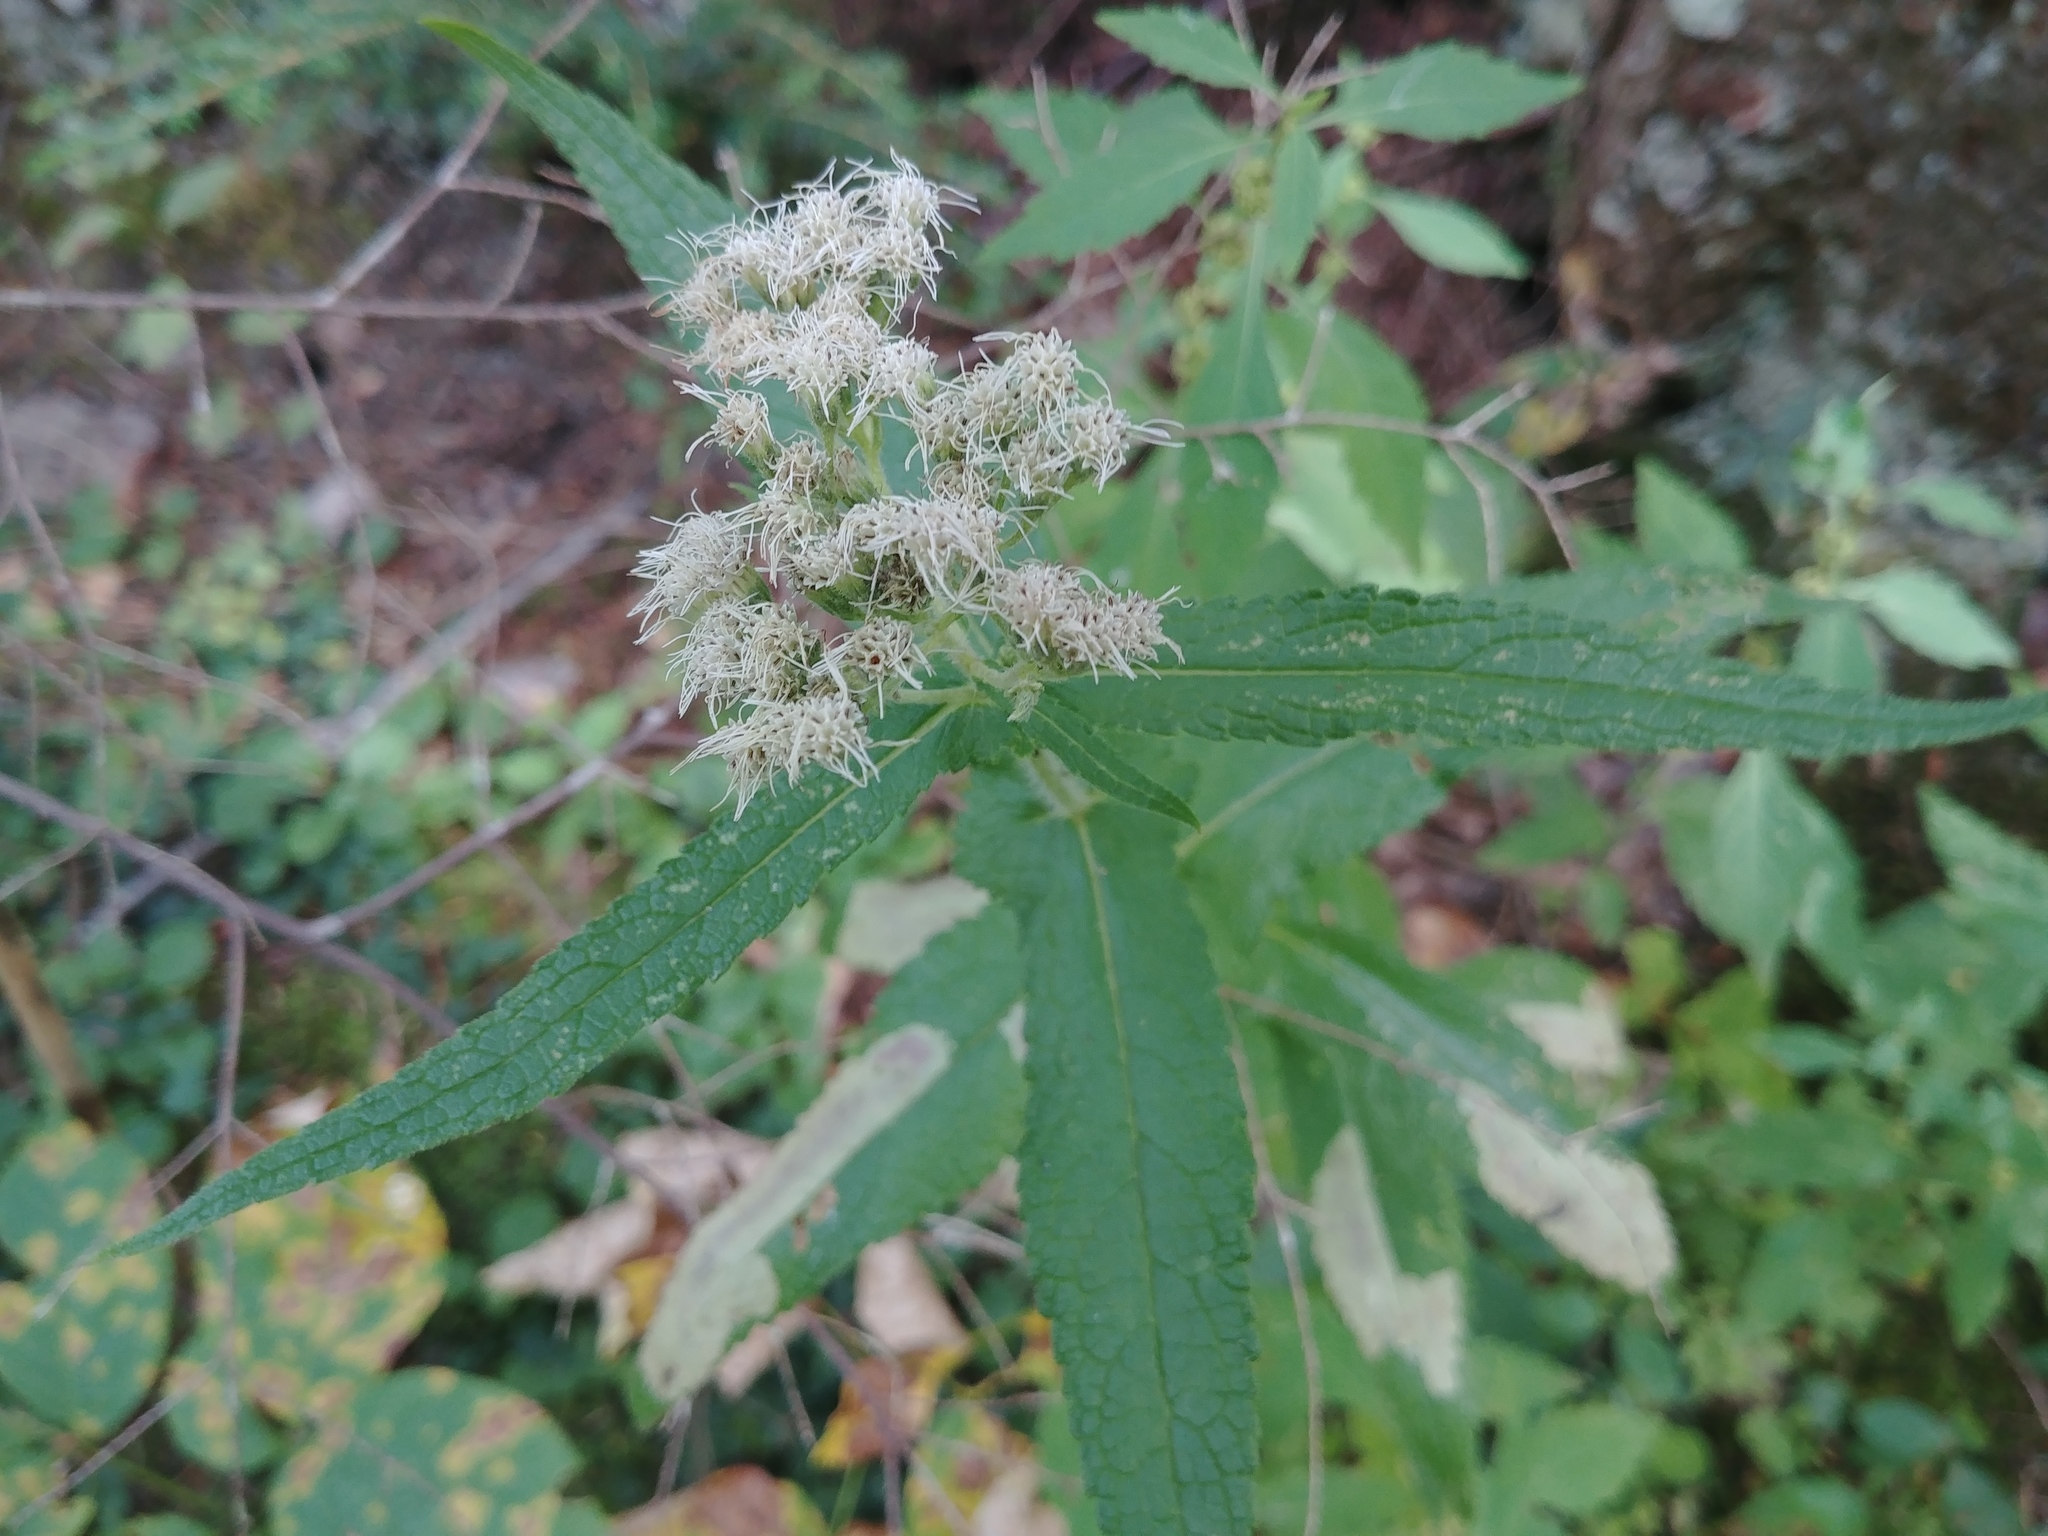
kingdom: Plantae
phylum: Tracheophyta
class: Magnoliopsida
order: Asterales
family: Asteraceae
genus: Eupatorium
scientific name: Eupatorium perfoliatum
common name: Boneset
